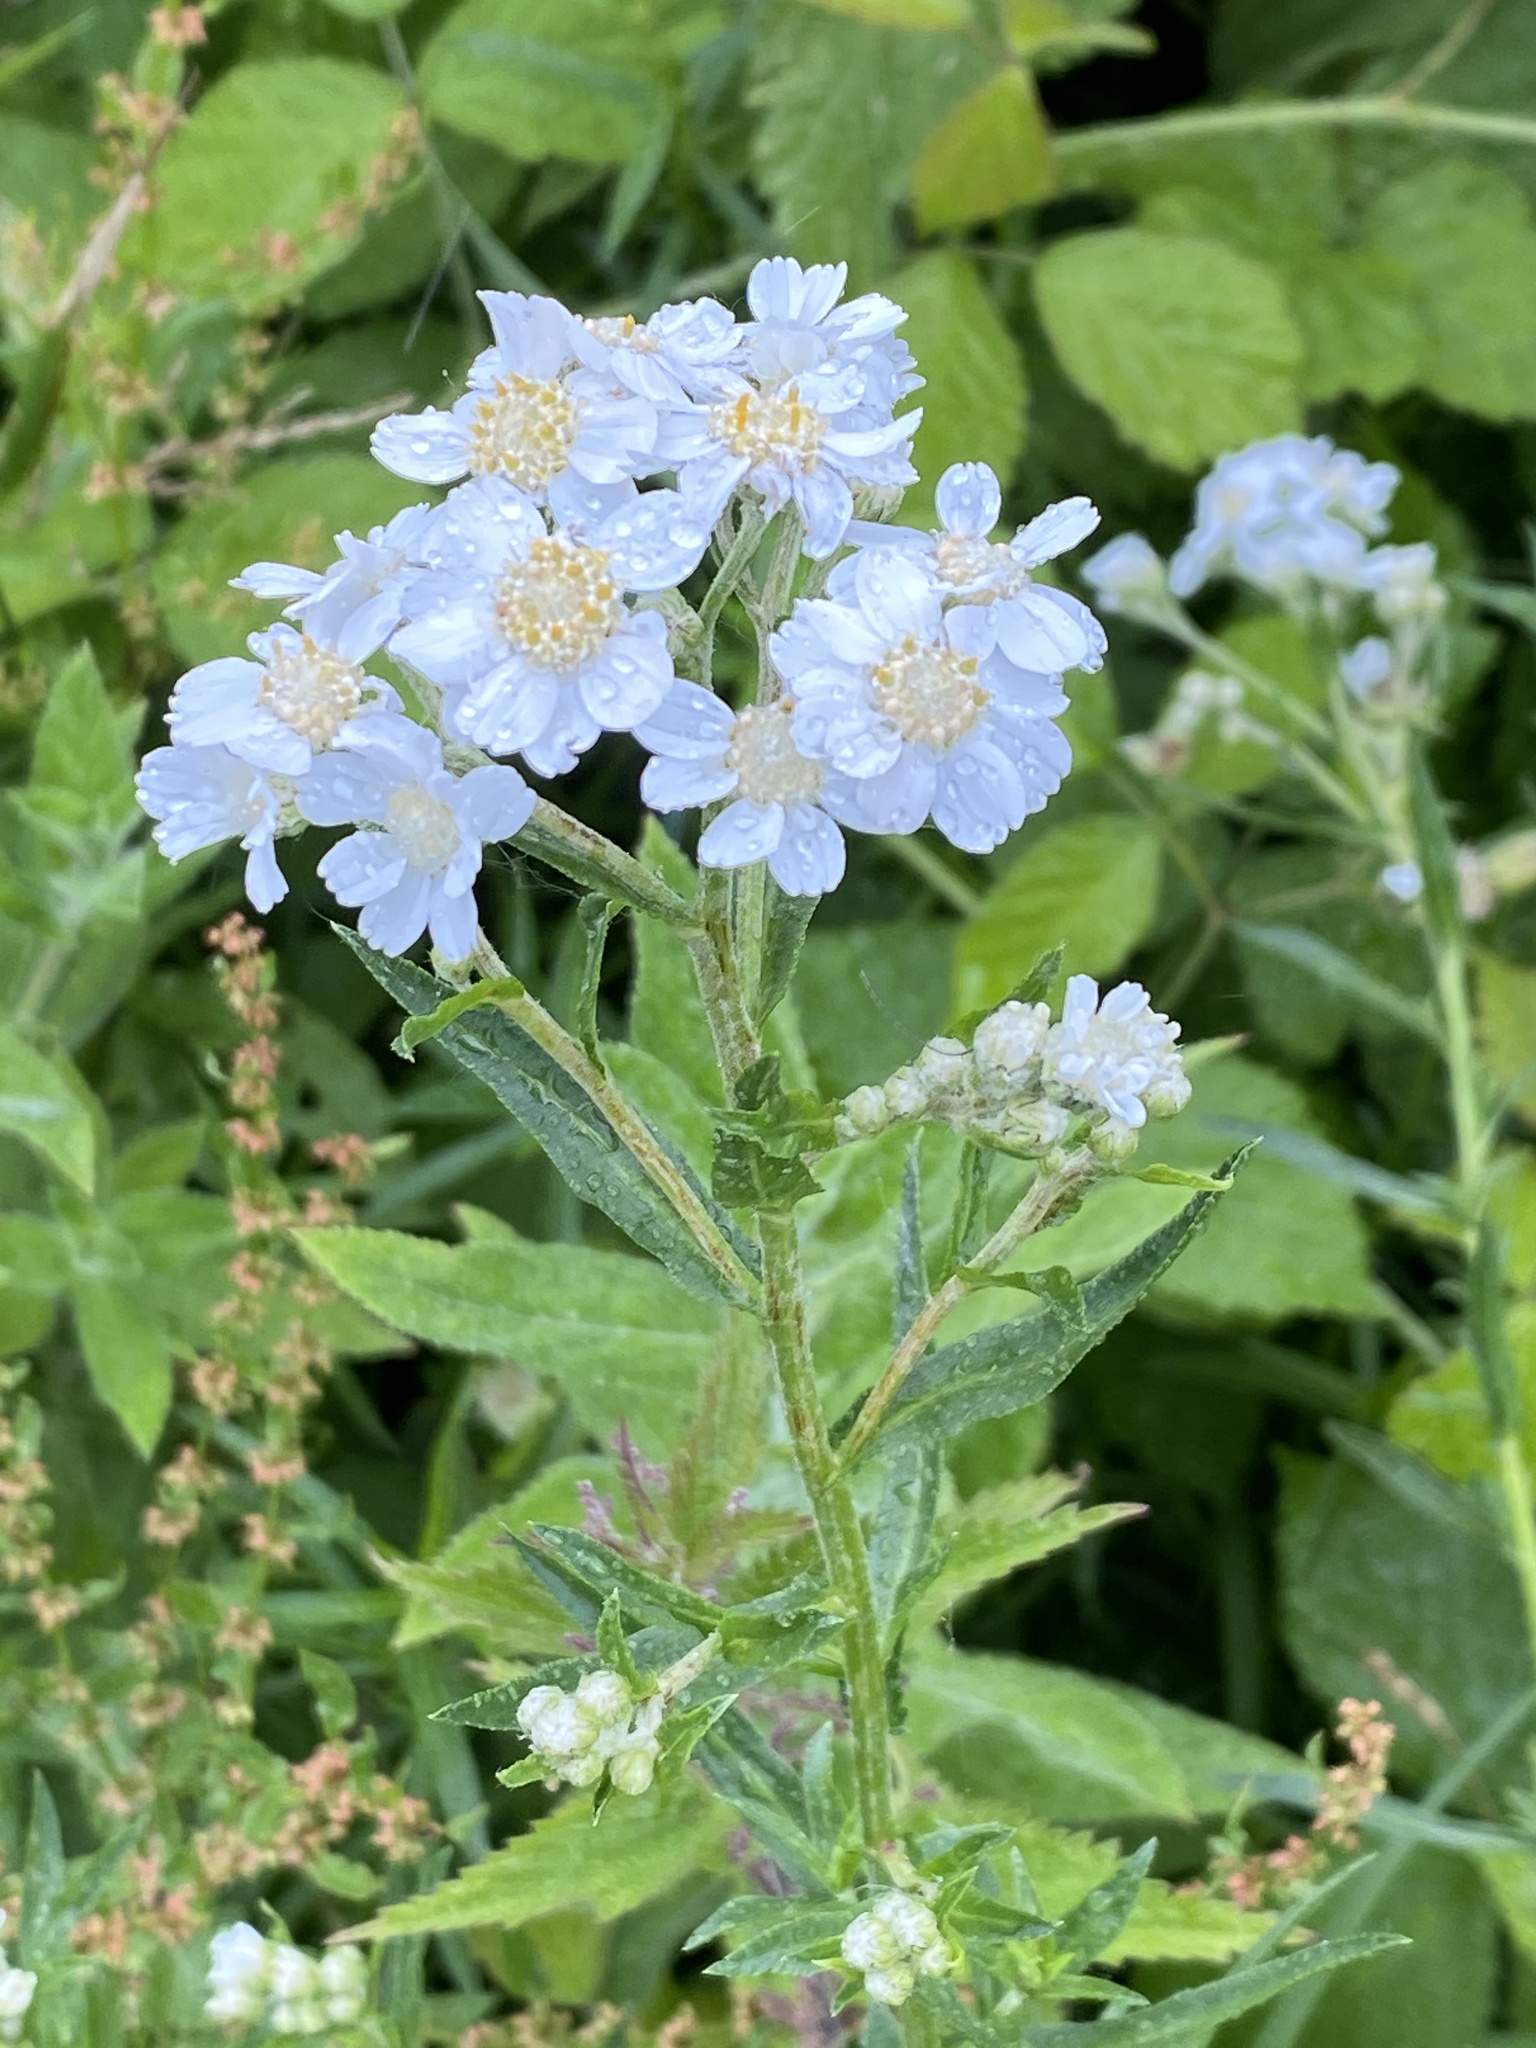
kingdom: Plantae
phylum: Tracheophyta
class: Magnoliopsida
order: Asterales
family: Asteraceae
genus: Achillea
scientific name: Achillea ptarmica
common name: Sneezeweed
